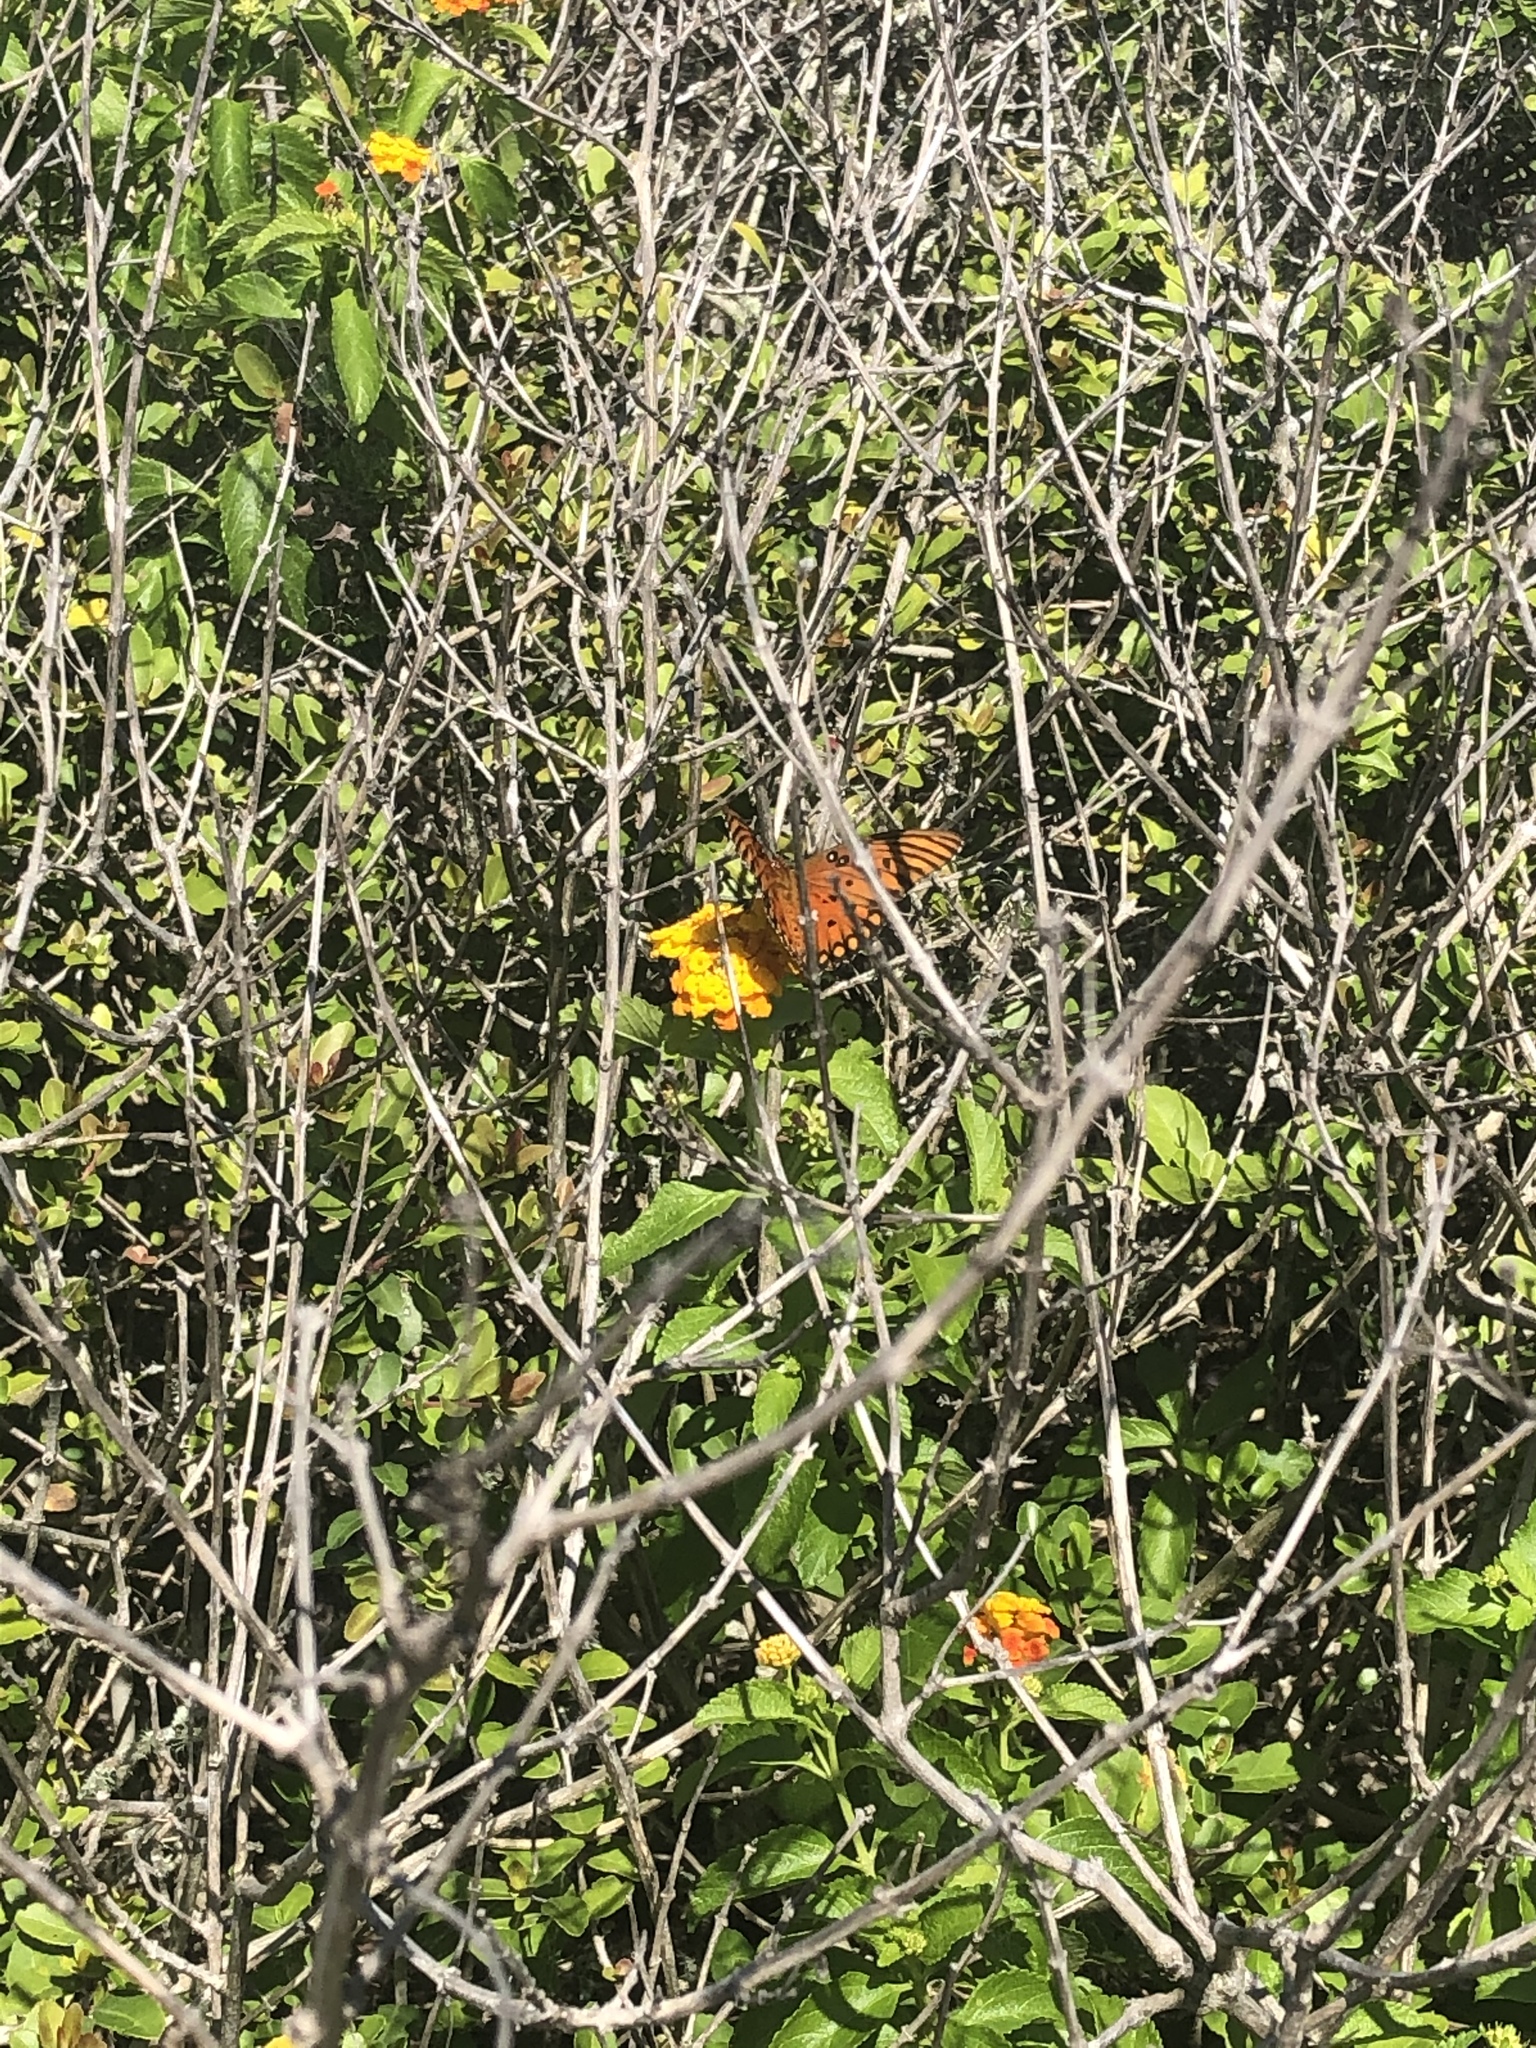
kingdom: Animalia
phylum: Arthropoda
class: Insecta
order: Lepidoptera
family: Nymphalidae
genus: Dione
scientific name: Dione vanillae
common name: Gulf fritillary
